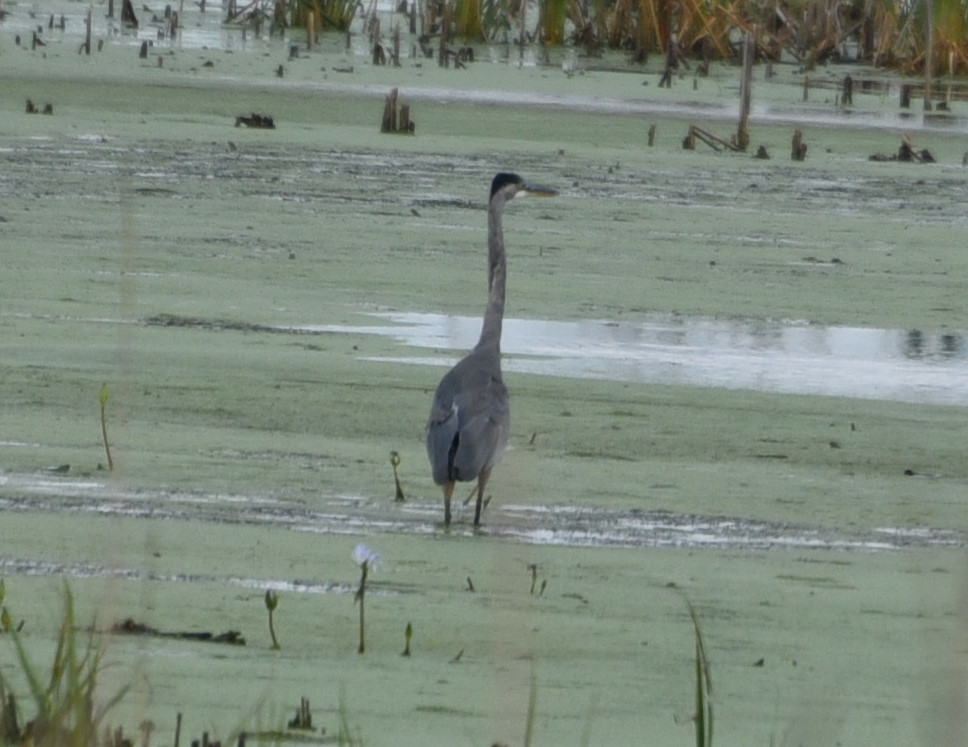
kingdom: Animalia
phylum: Chordata
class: Aves
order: Pelecaniformes
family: Ardeidae
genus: Ardea
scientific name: Ardea herodias
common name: Great blue heron
